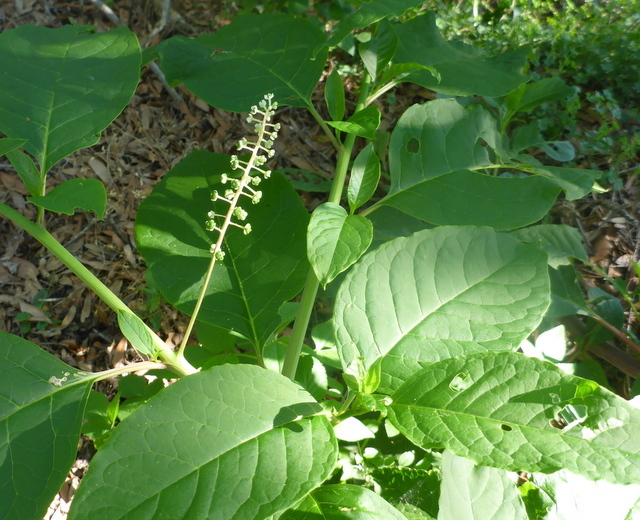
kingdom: Plantae
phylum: Tracheophyta
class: Magnoliopsida
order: Caryophyllales
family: Phytolaccaceae
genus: Phytolacca
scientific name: Phytolacca americana
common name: American pokeweed
